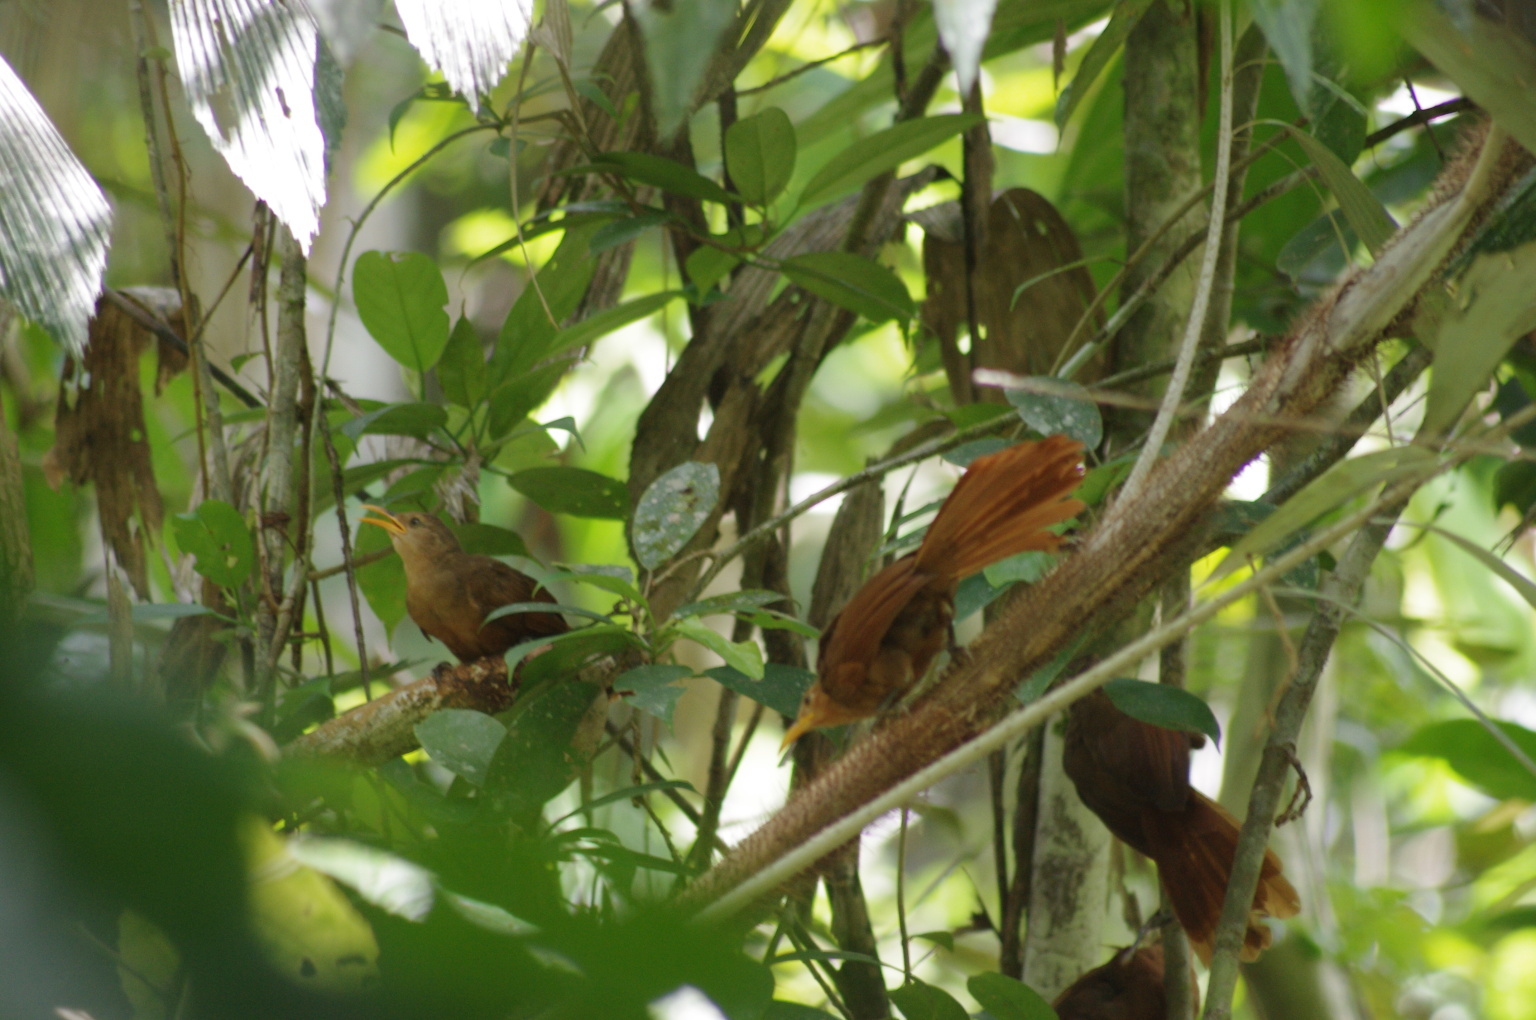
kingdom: Animalia
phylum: Chordata
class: Aves
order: Passeriformes
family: Pomatostomidae
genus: Garritornis
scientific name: Garritornis isidorei
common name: Papuan babbler
